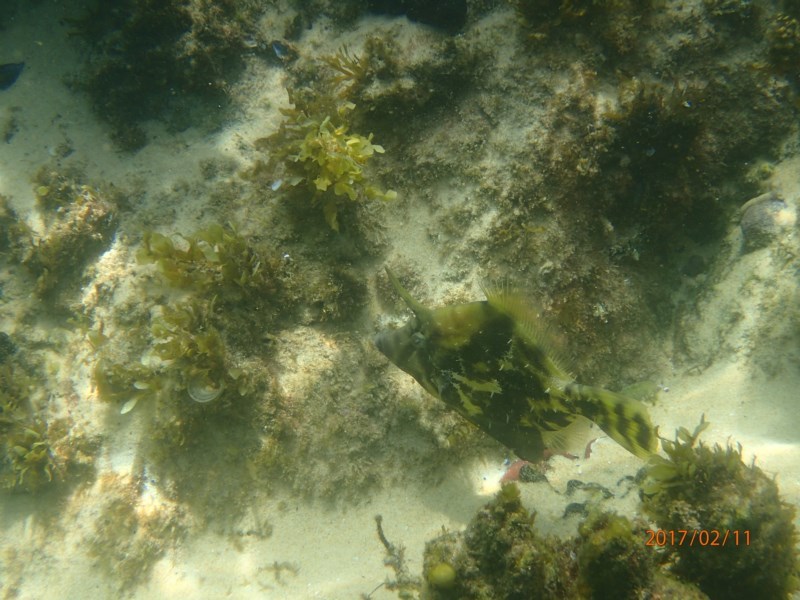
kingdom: Animalia
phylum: Chordata
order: Tetraodontiformes
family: Monacanthidae
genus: Monacanthus
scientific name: Monacanthus chinensis
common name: Centreboard leatherjacket
